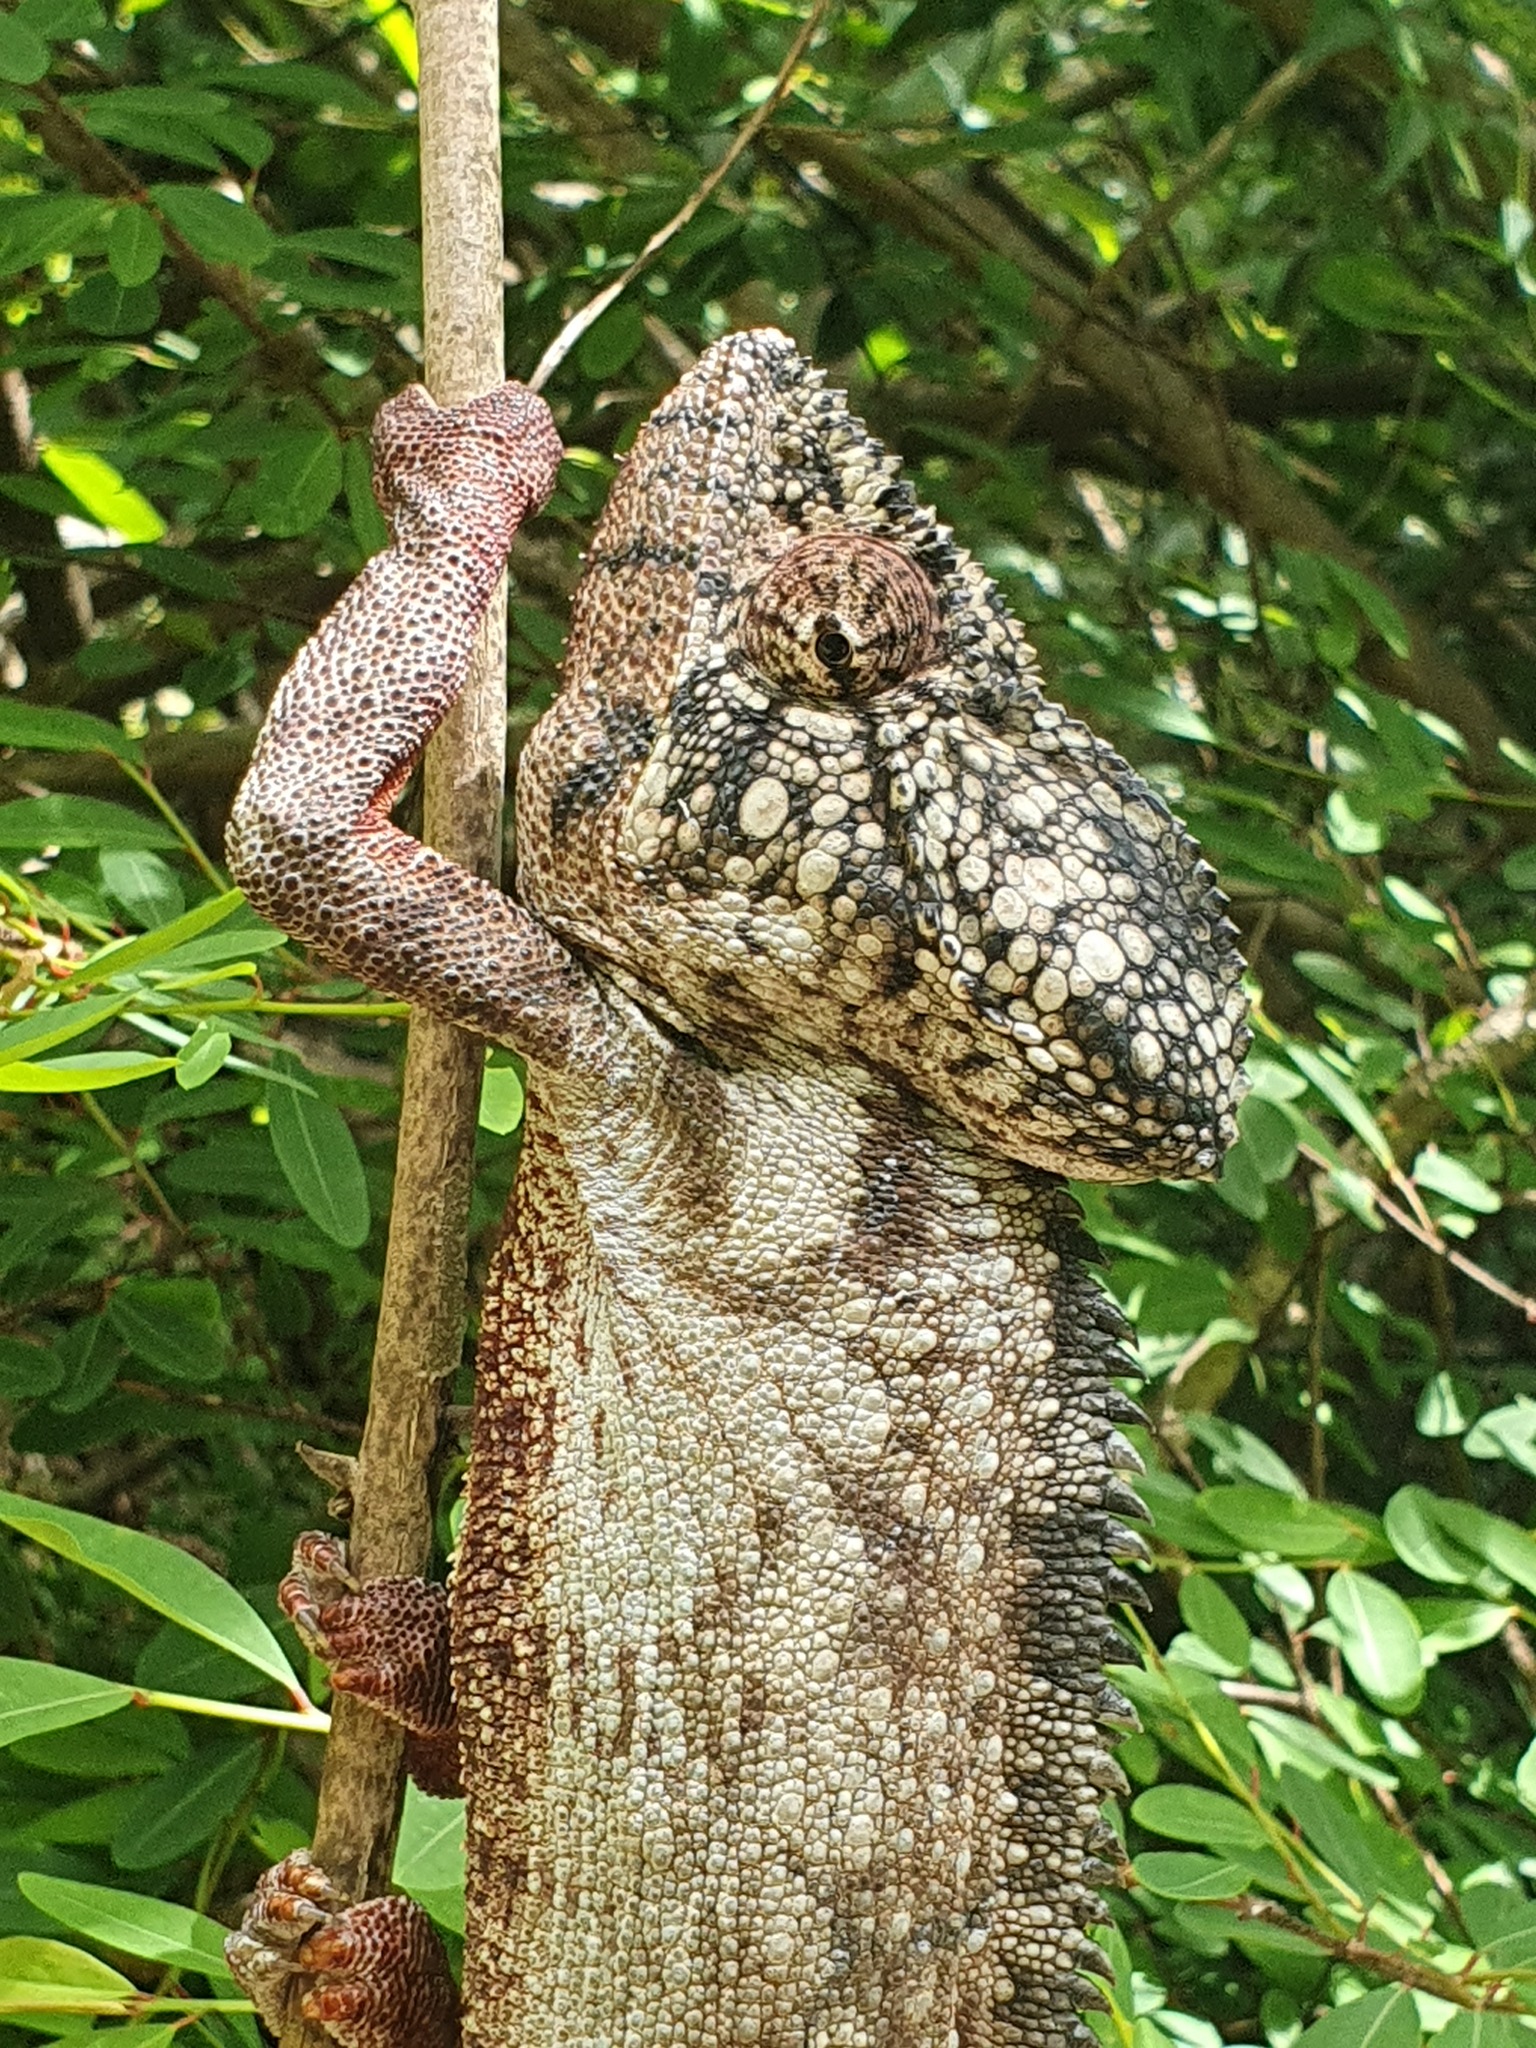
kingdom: Animalia
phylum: Chordata
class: Squamata
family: Chamaeleonidae
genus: Furcifer
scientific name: Furcifer oustaleti
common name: Oustalet's chameleon
